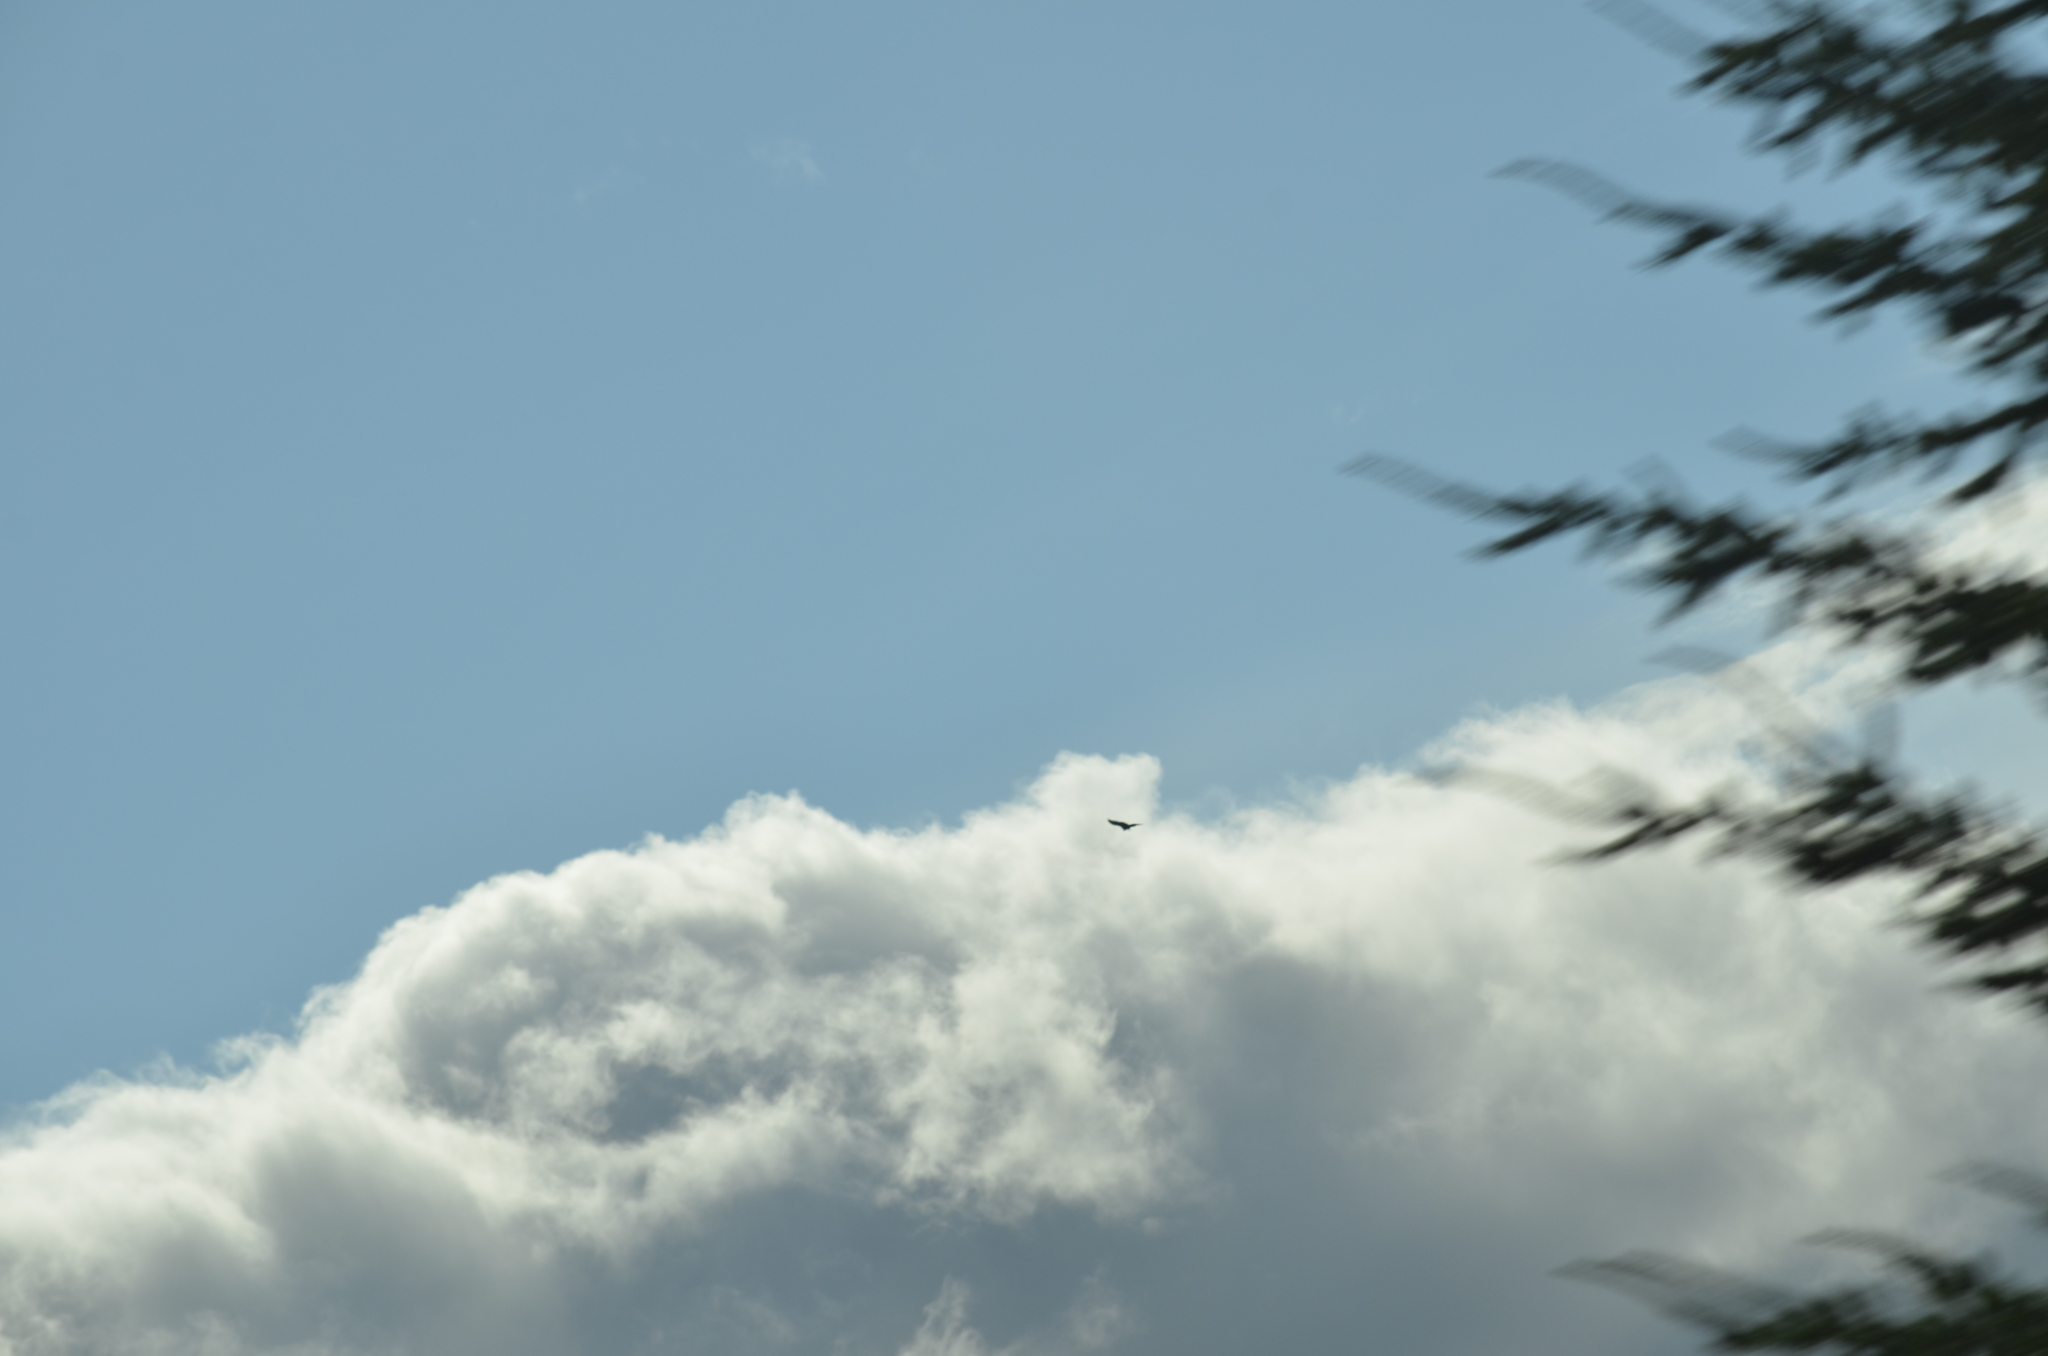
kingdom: Animalia
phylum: Chordata
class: Aves
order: Accipitriformes
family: Cathartidae
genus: Cathartes
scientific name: Cathartes aura
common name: Turkey vulture
